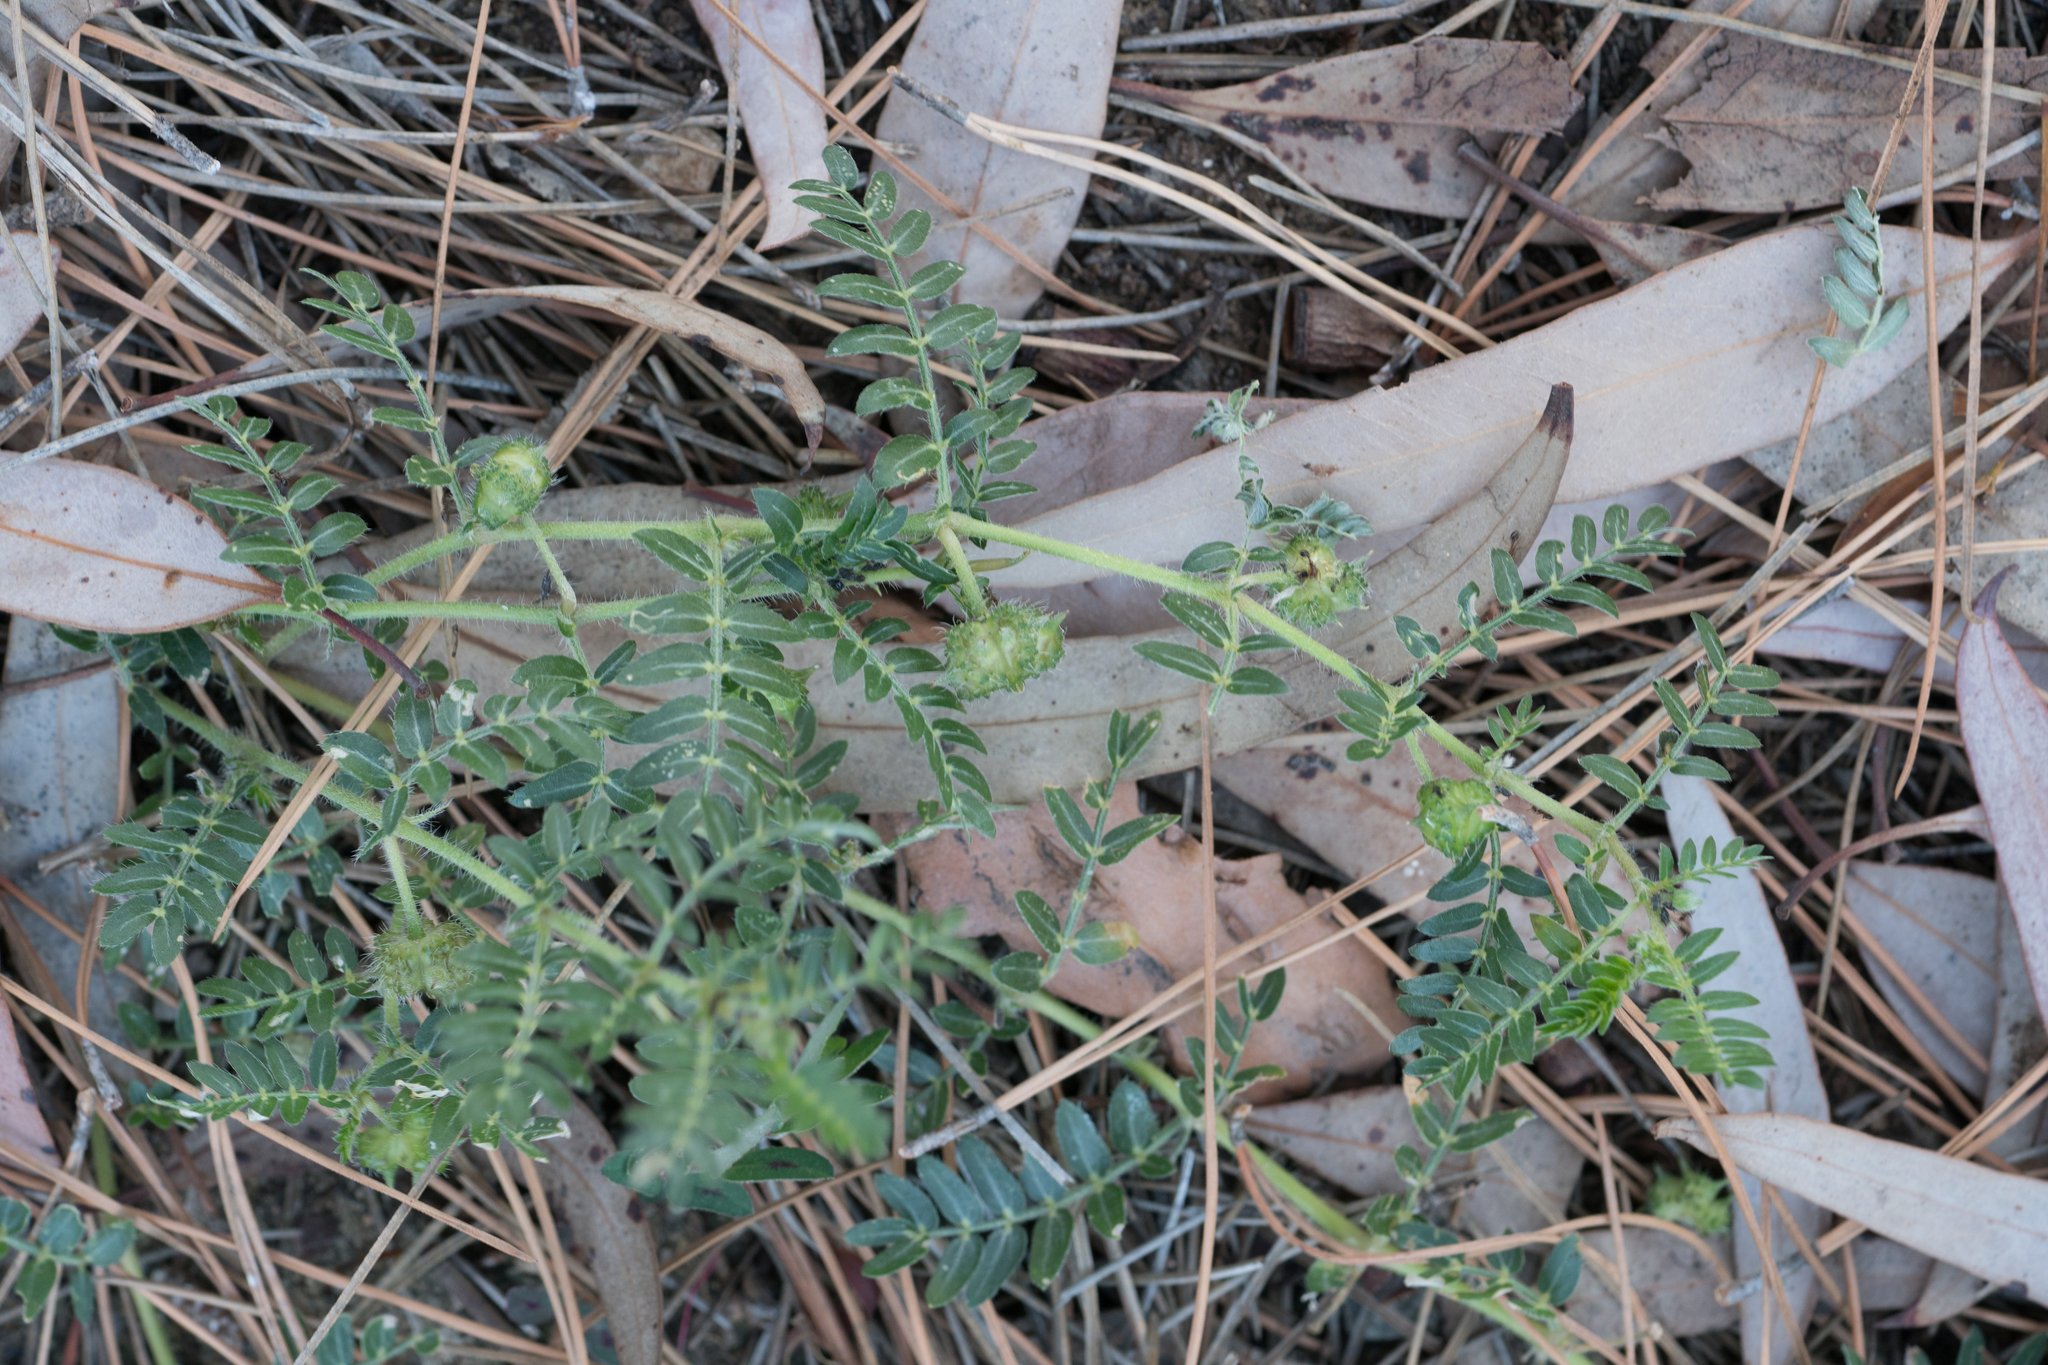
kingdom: Plantae
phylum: Tracheophyta
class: Magnoliopsida
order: Zygophyllales
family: Zygophyllaceae
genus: Tribulus
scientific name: Tribulus terrestris
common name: Puncturevine
